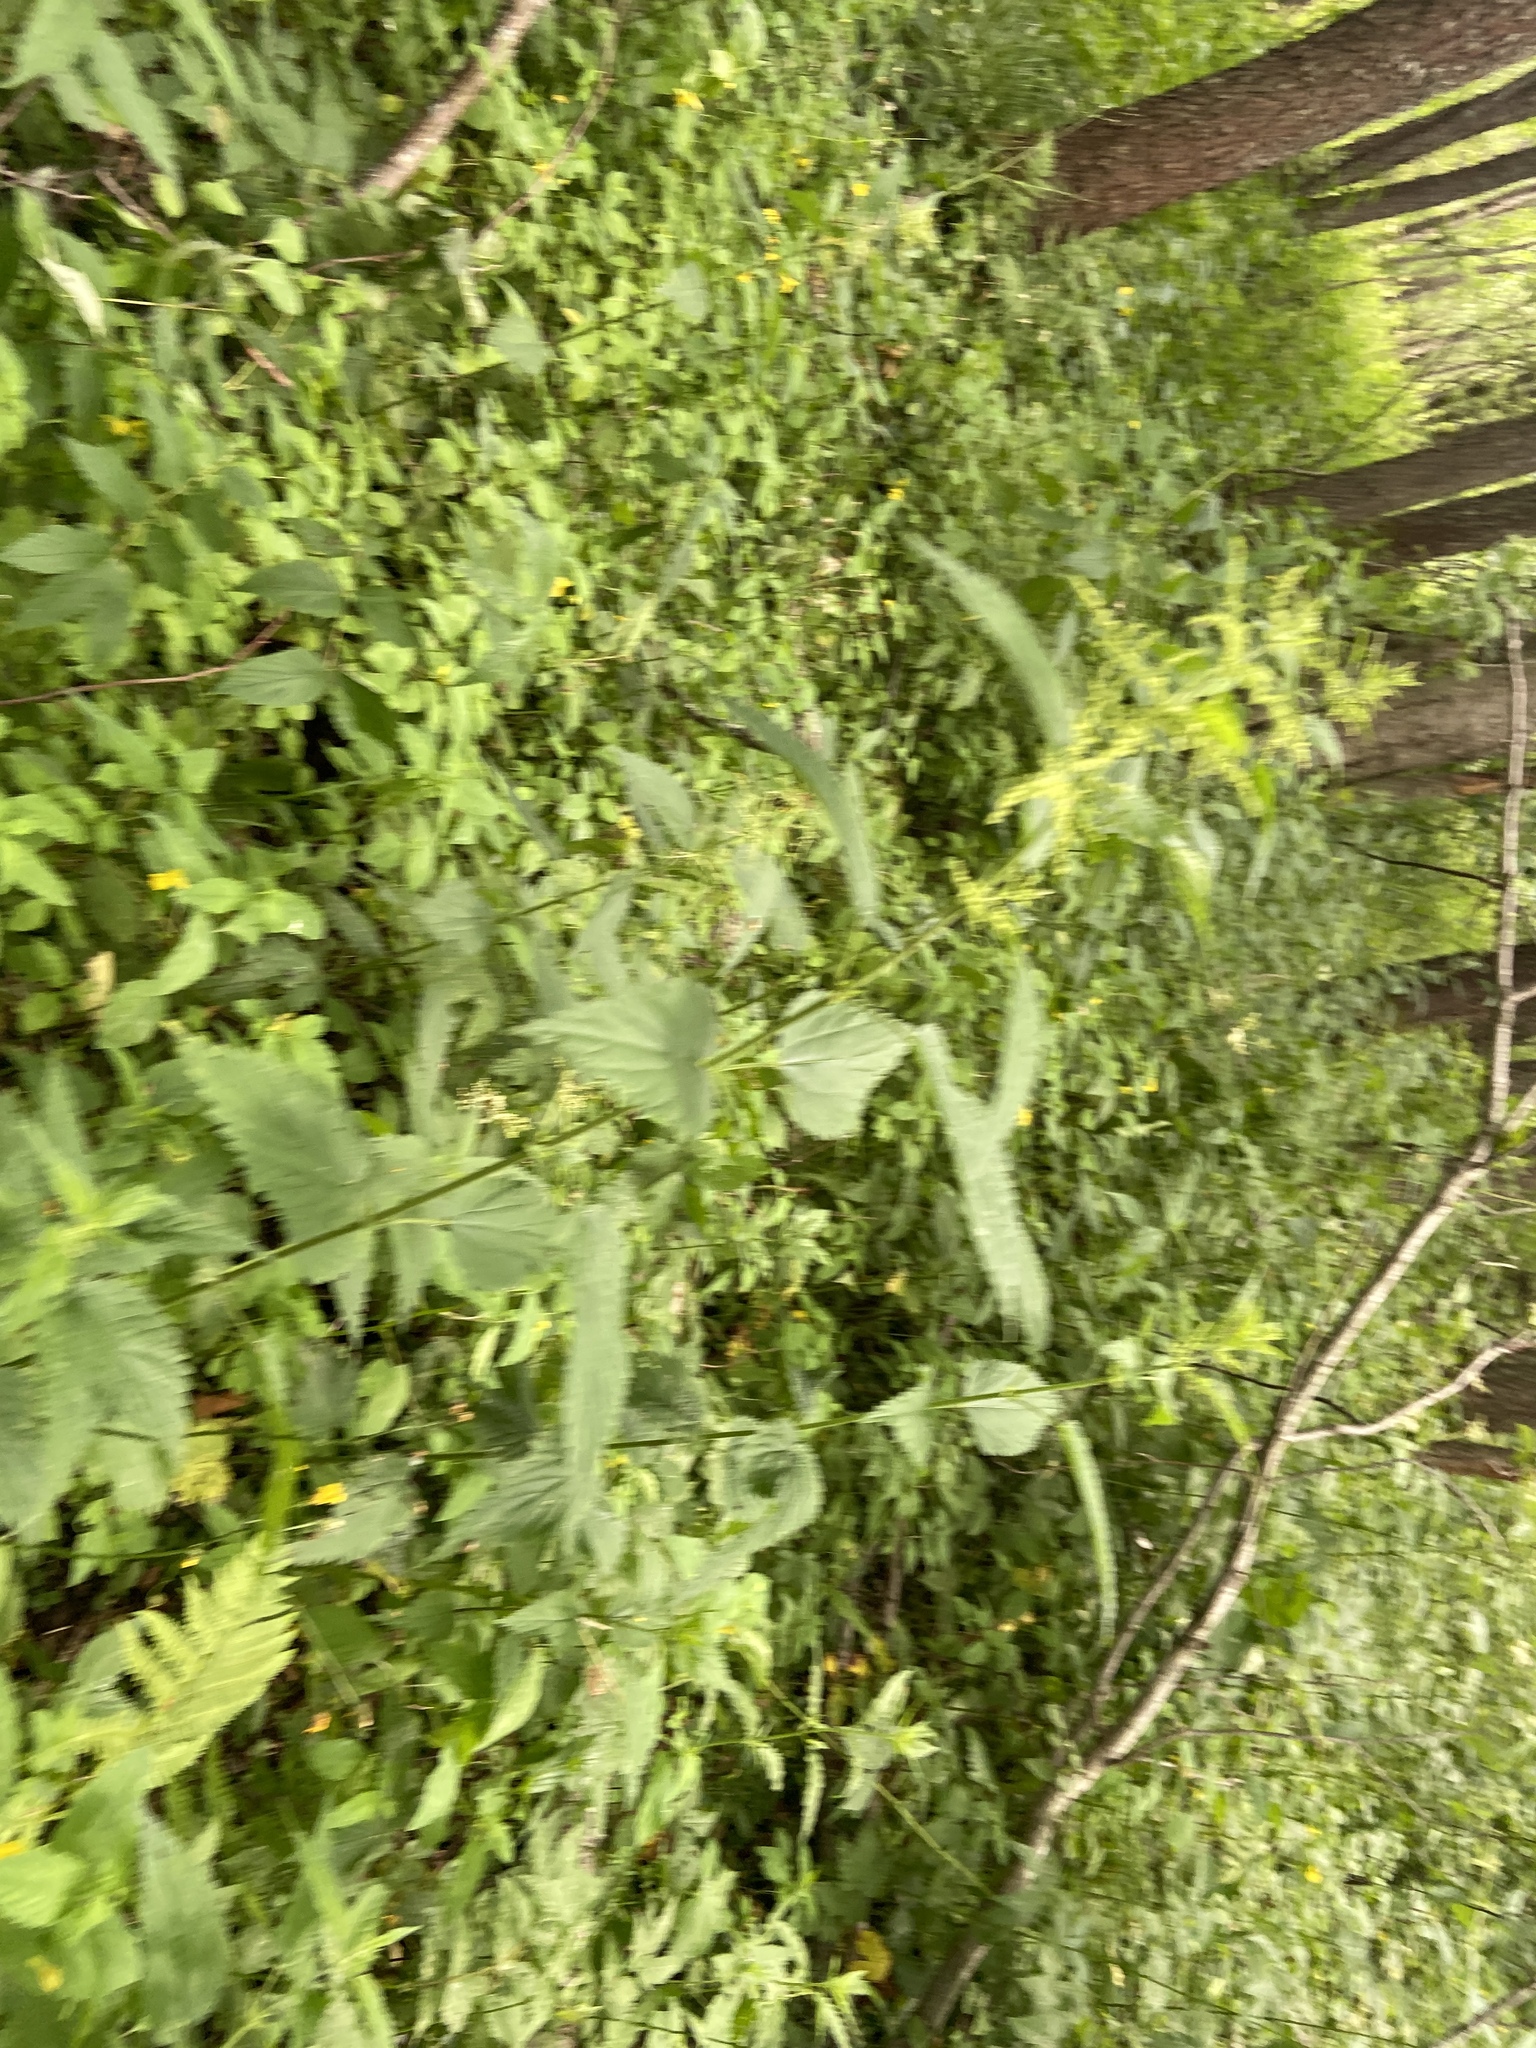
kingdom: Plantae
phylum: Tracheophyta
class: Magnoliopsida
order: Rosales
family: Urticaceae
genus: Urtica
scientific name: Urtica dioica
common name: Common nettle
